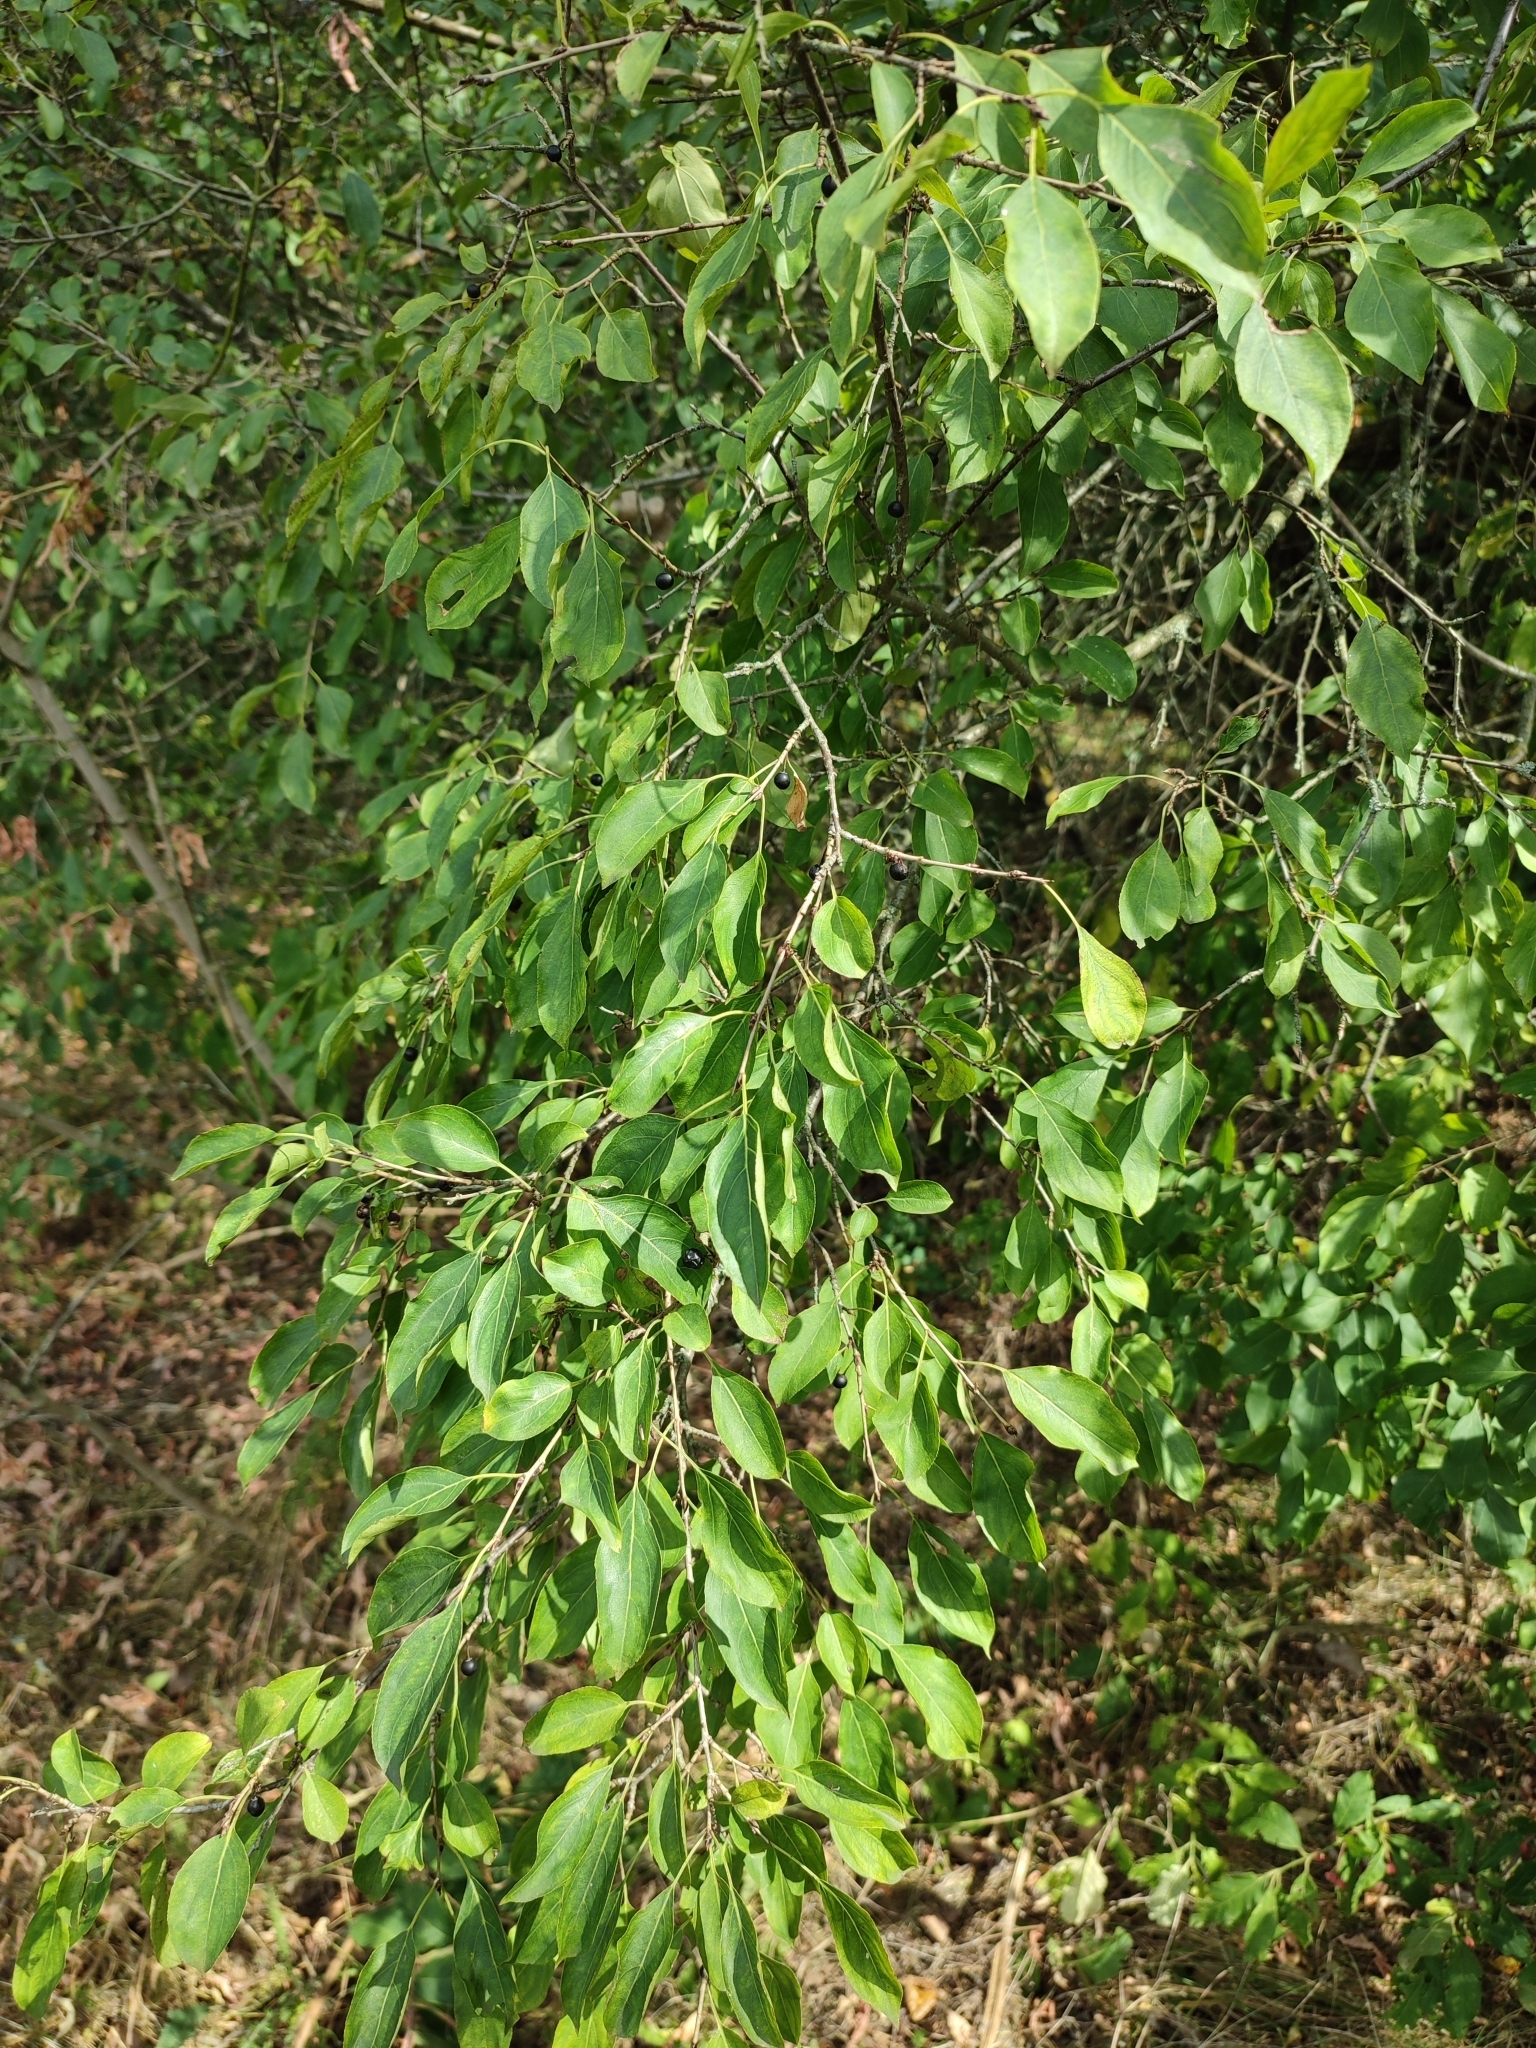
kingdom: Plantae
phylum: Tracheophyta
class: Magnoliopsida
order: Rosales
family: Rhamnaceae
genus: Rhamnus
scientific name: Rhamnus cathartica
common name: Common buckthorn
